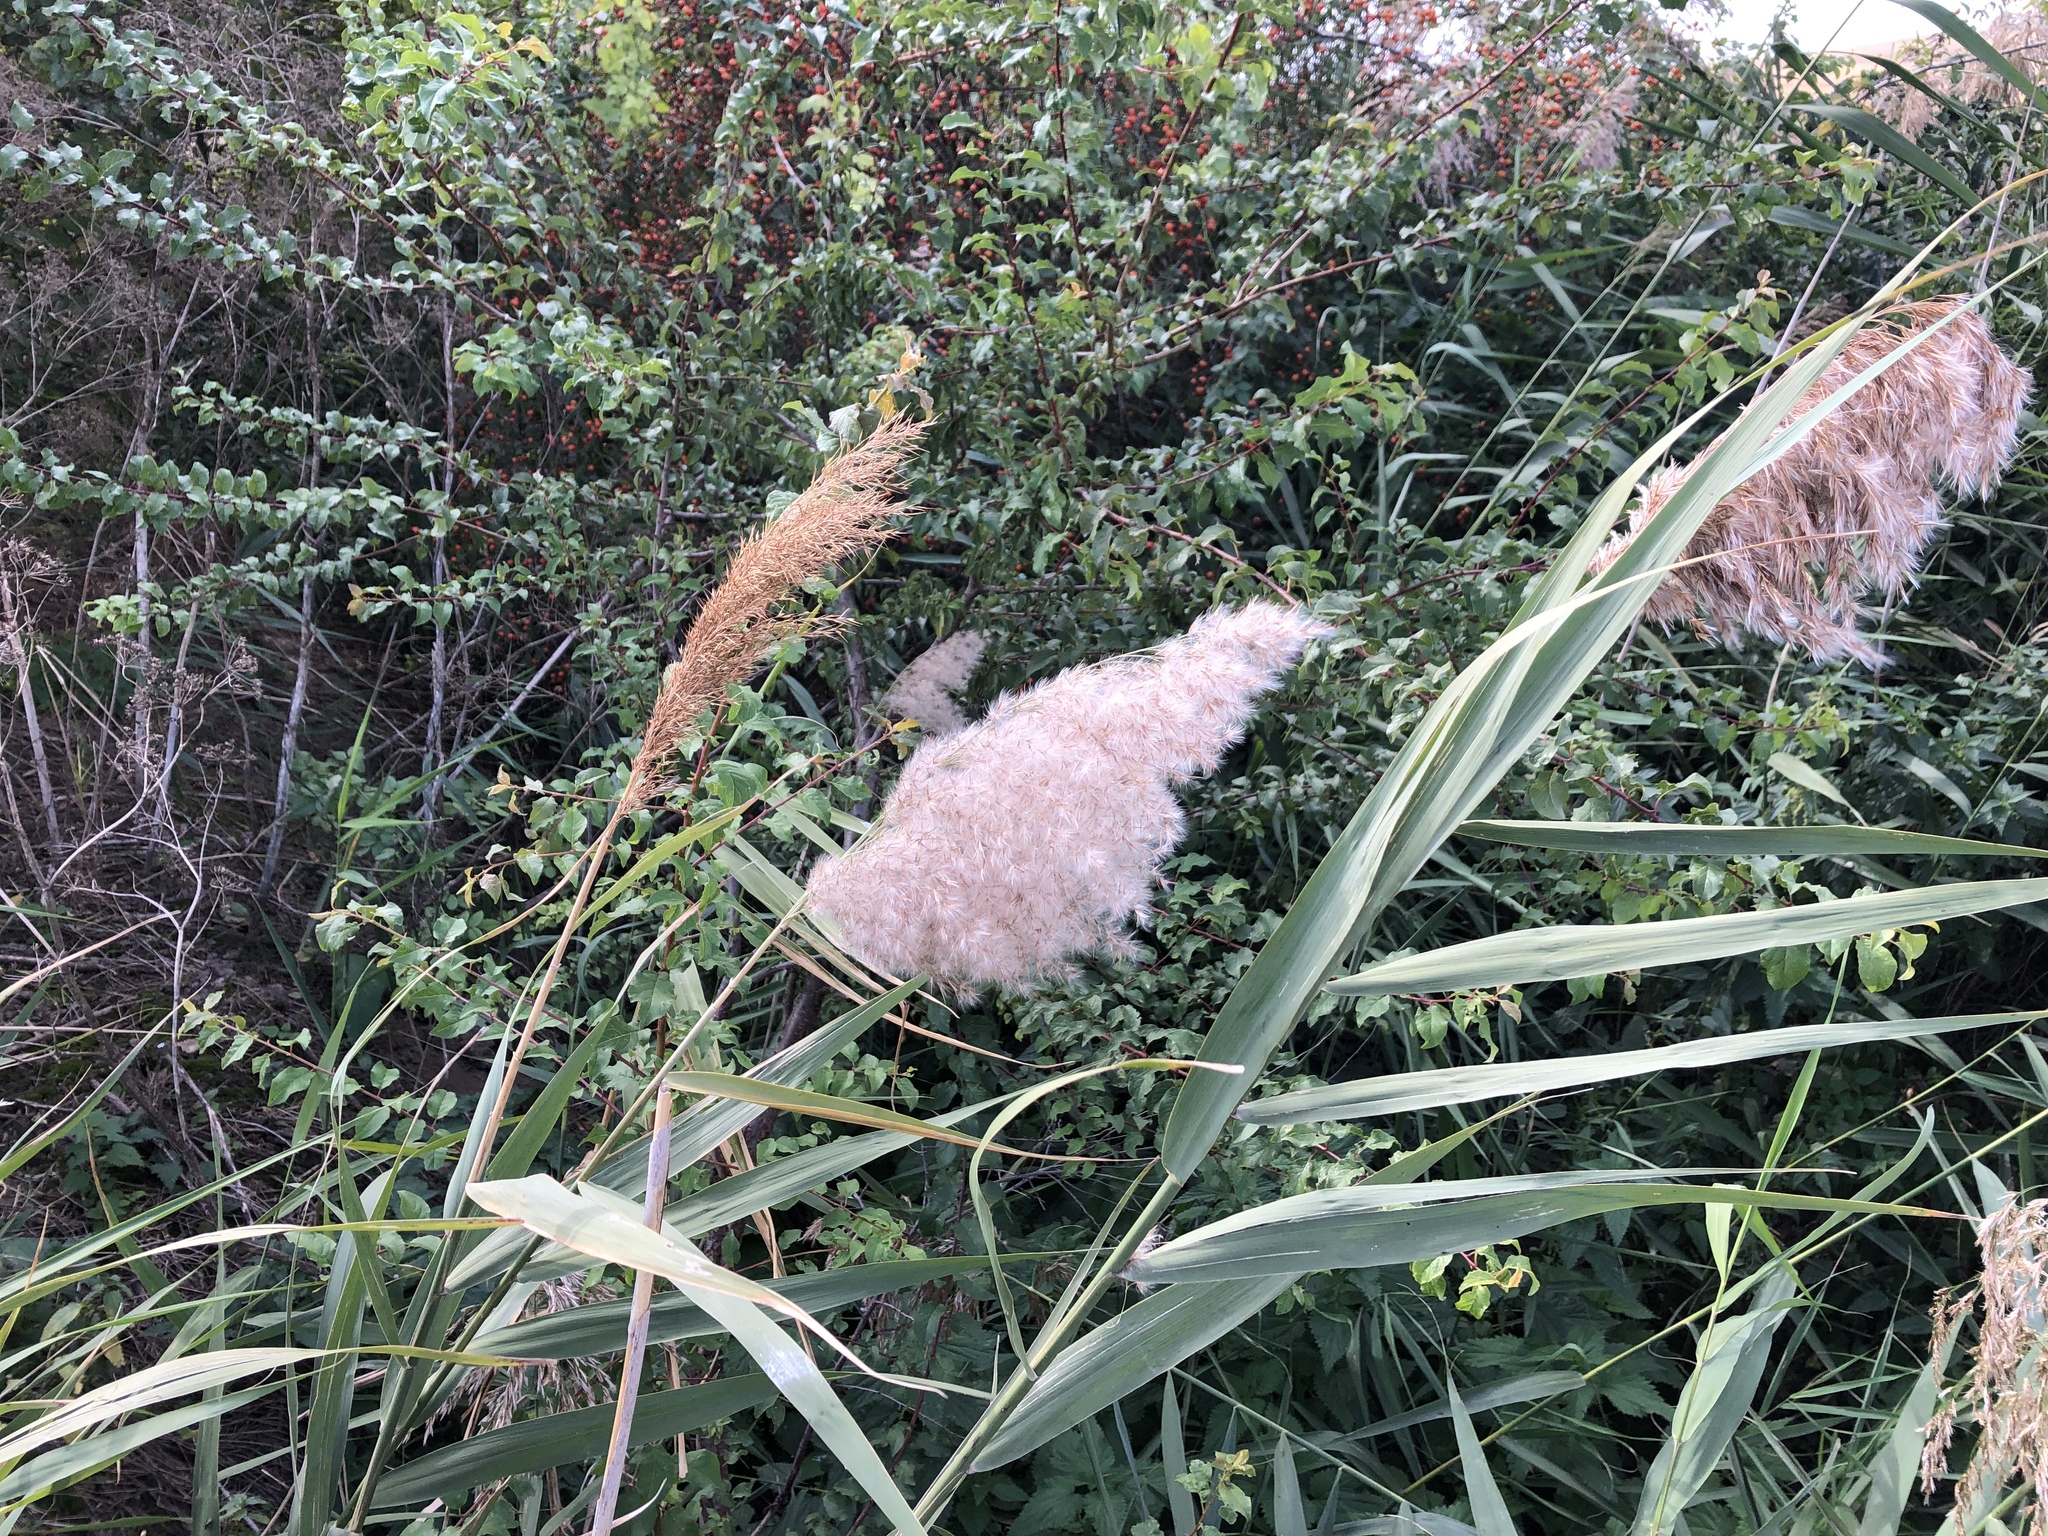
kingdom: Plantae
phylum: Tracheophyta
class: Liliopsida
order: Poales
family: Poaceae
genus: Phragmites
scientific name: Phragmites australis
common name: Common reed
